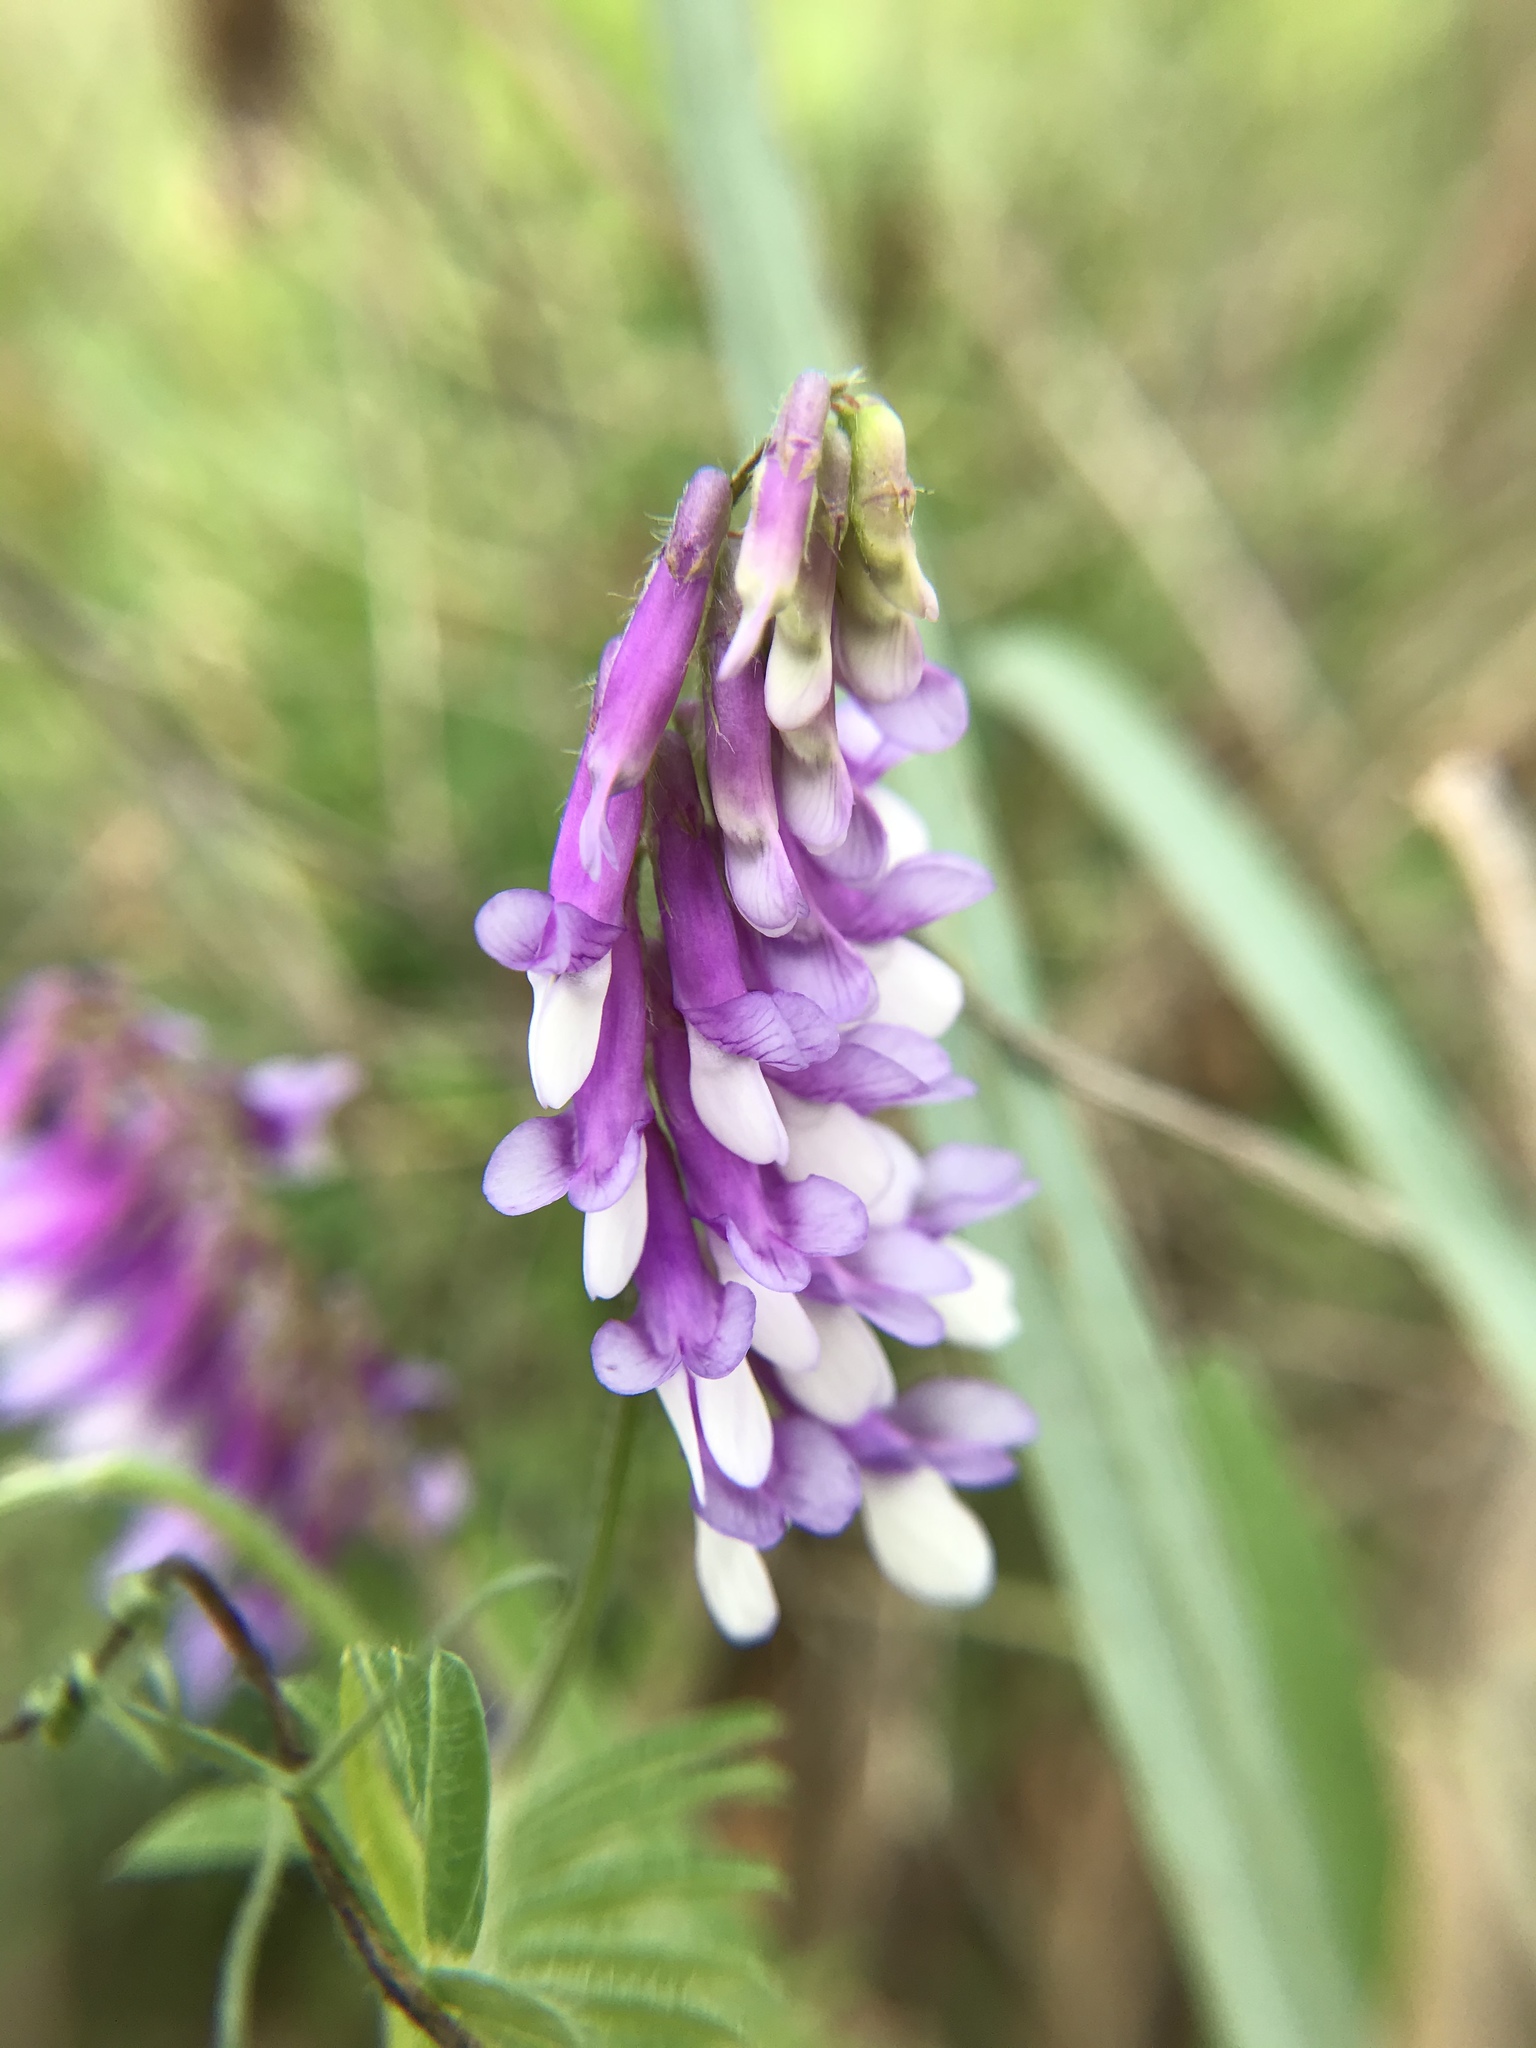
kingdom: Plantae
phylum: Tracheophyta
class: Magnoliopsida
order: Fabales
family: Fabaceae
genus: Vicia
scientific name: Vicia villosa
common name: Fodder vetch
